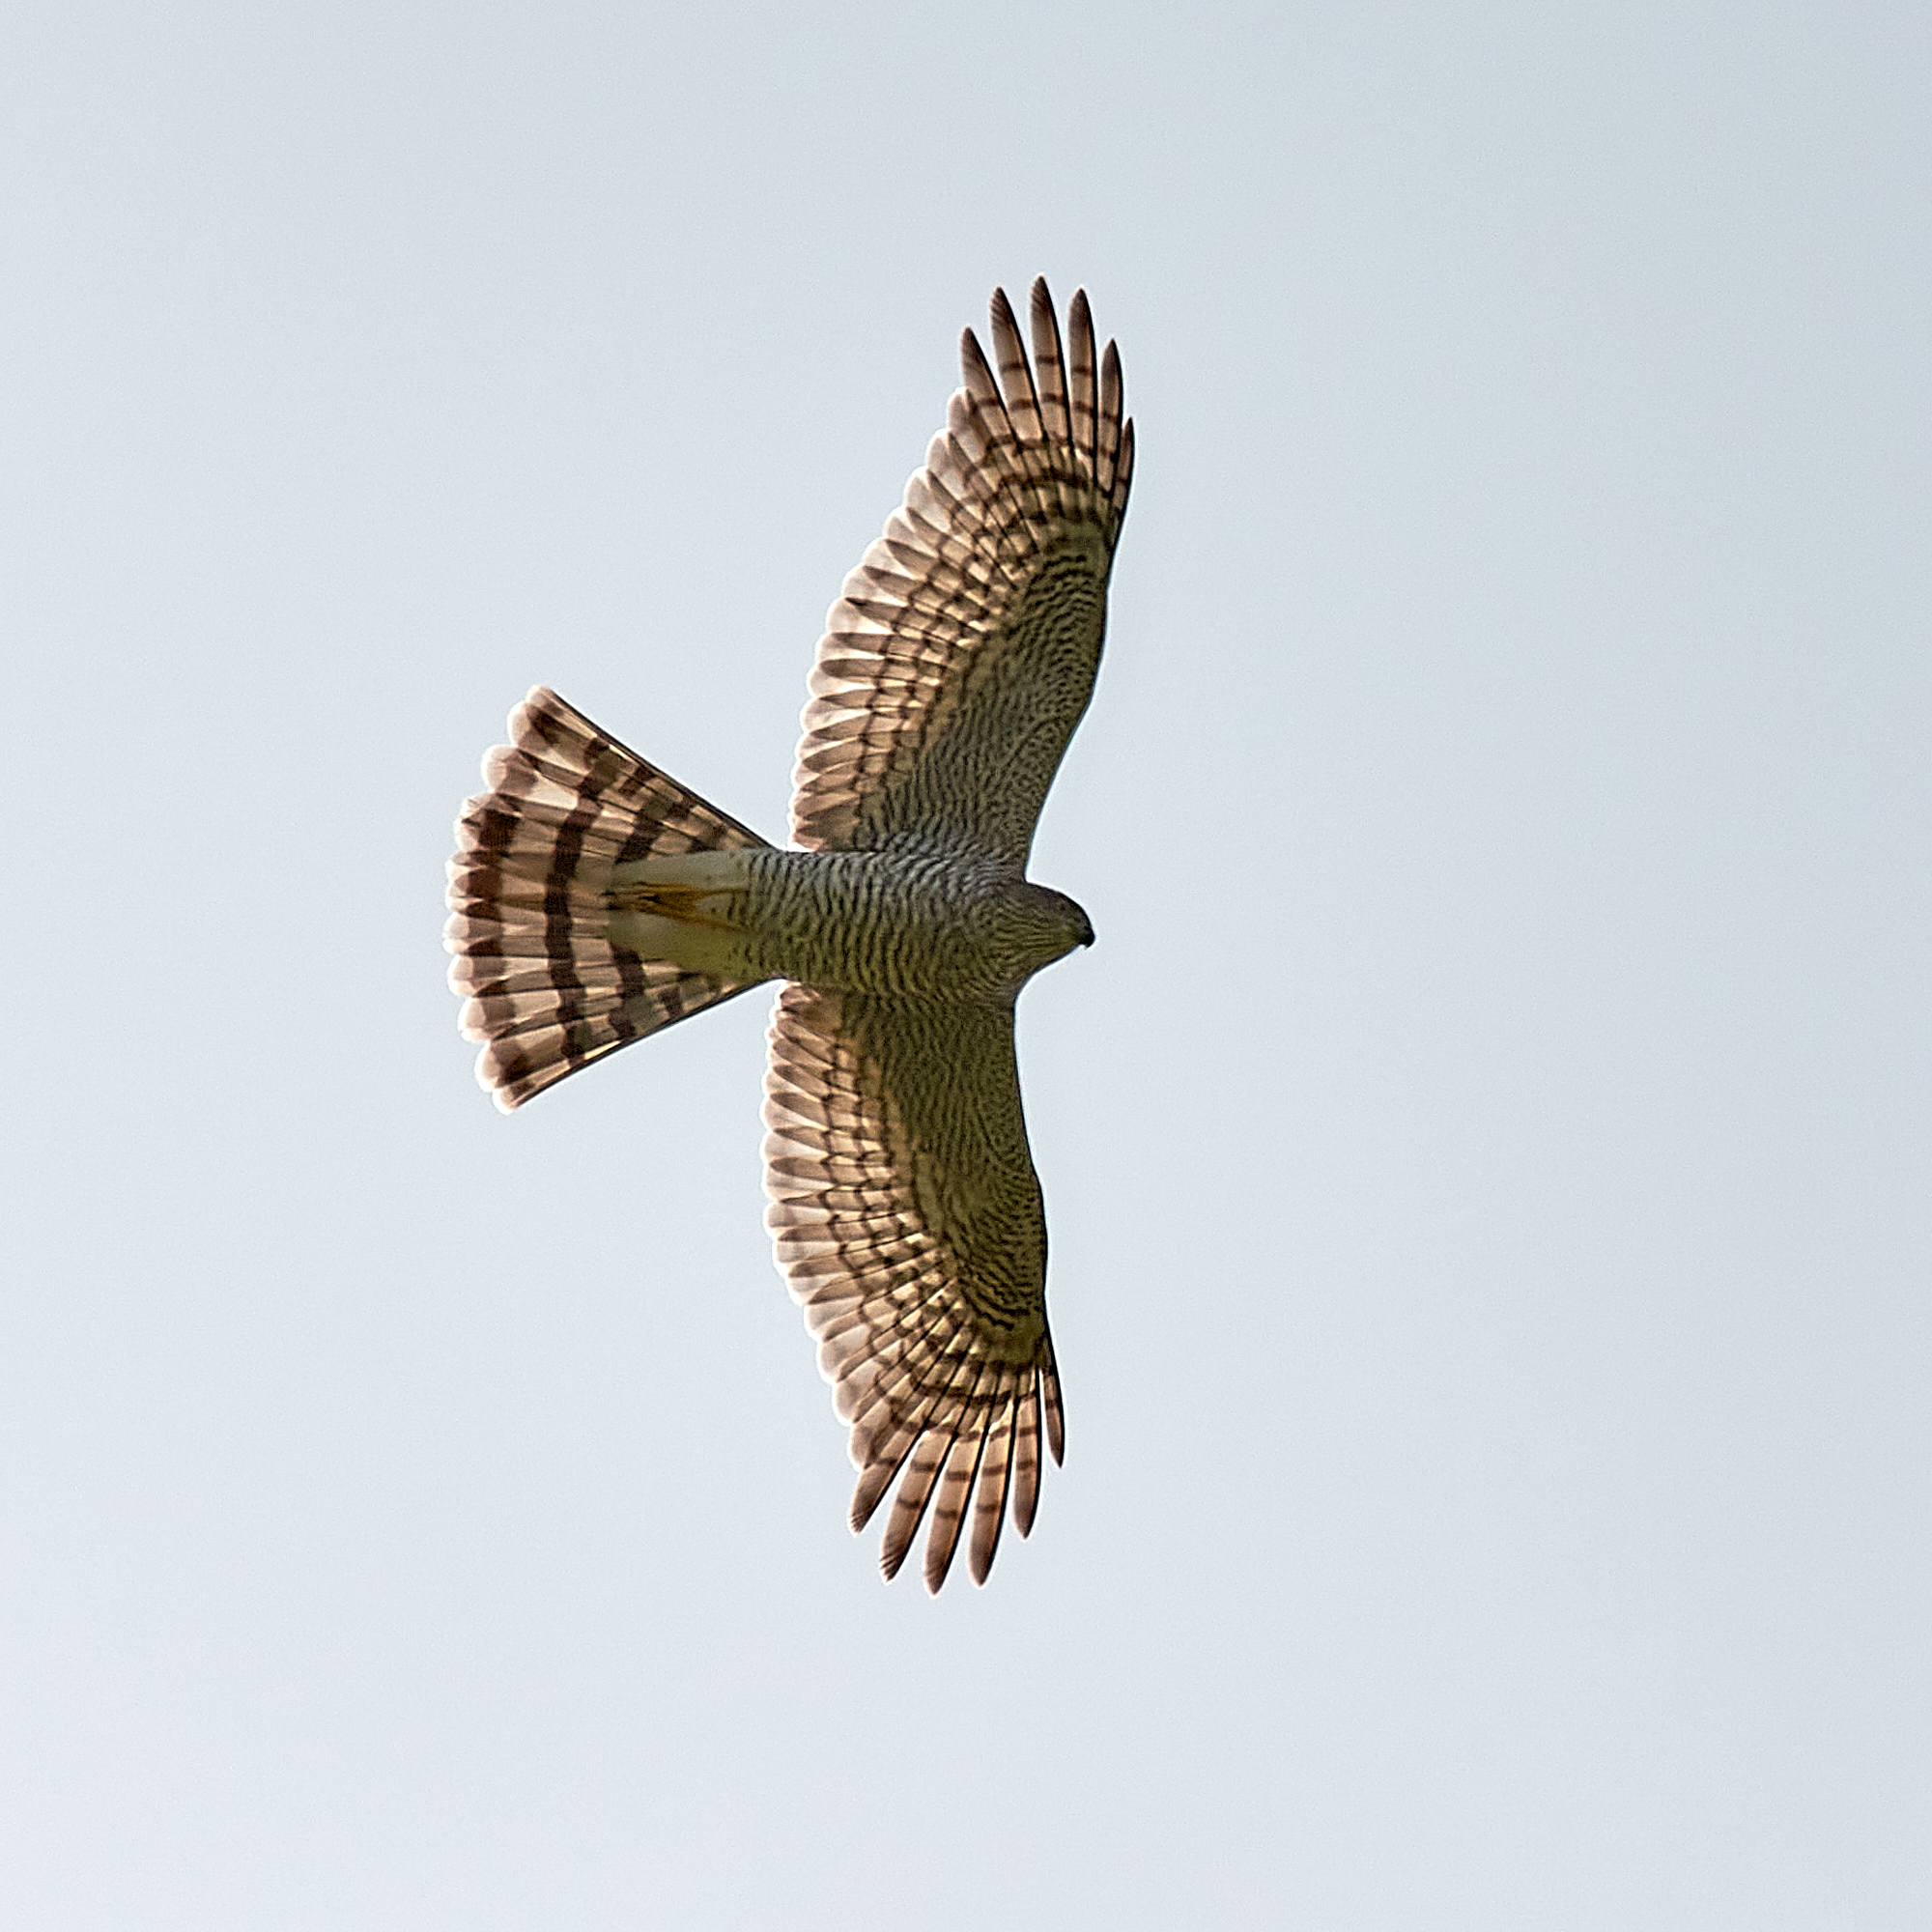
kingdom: Animalia
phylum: Chordata
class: Aves
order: Accipitriformes
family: Accipitridae
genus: Accipiter
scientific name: Accipiter nisus
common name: Eurasian sparrowhawk
